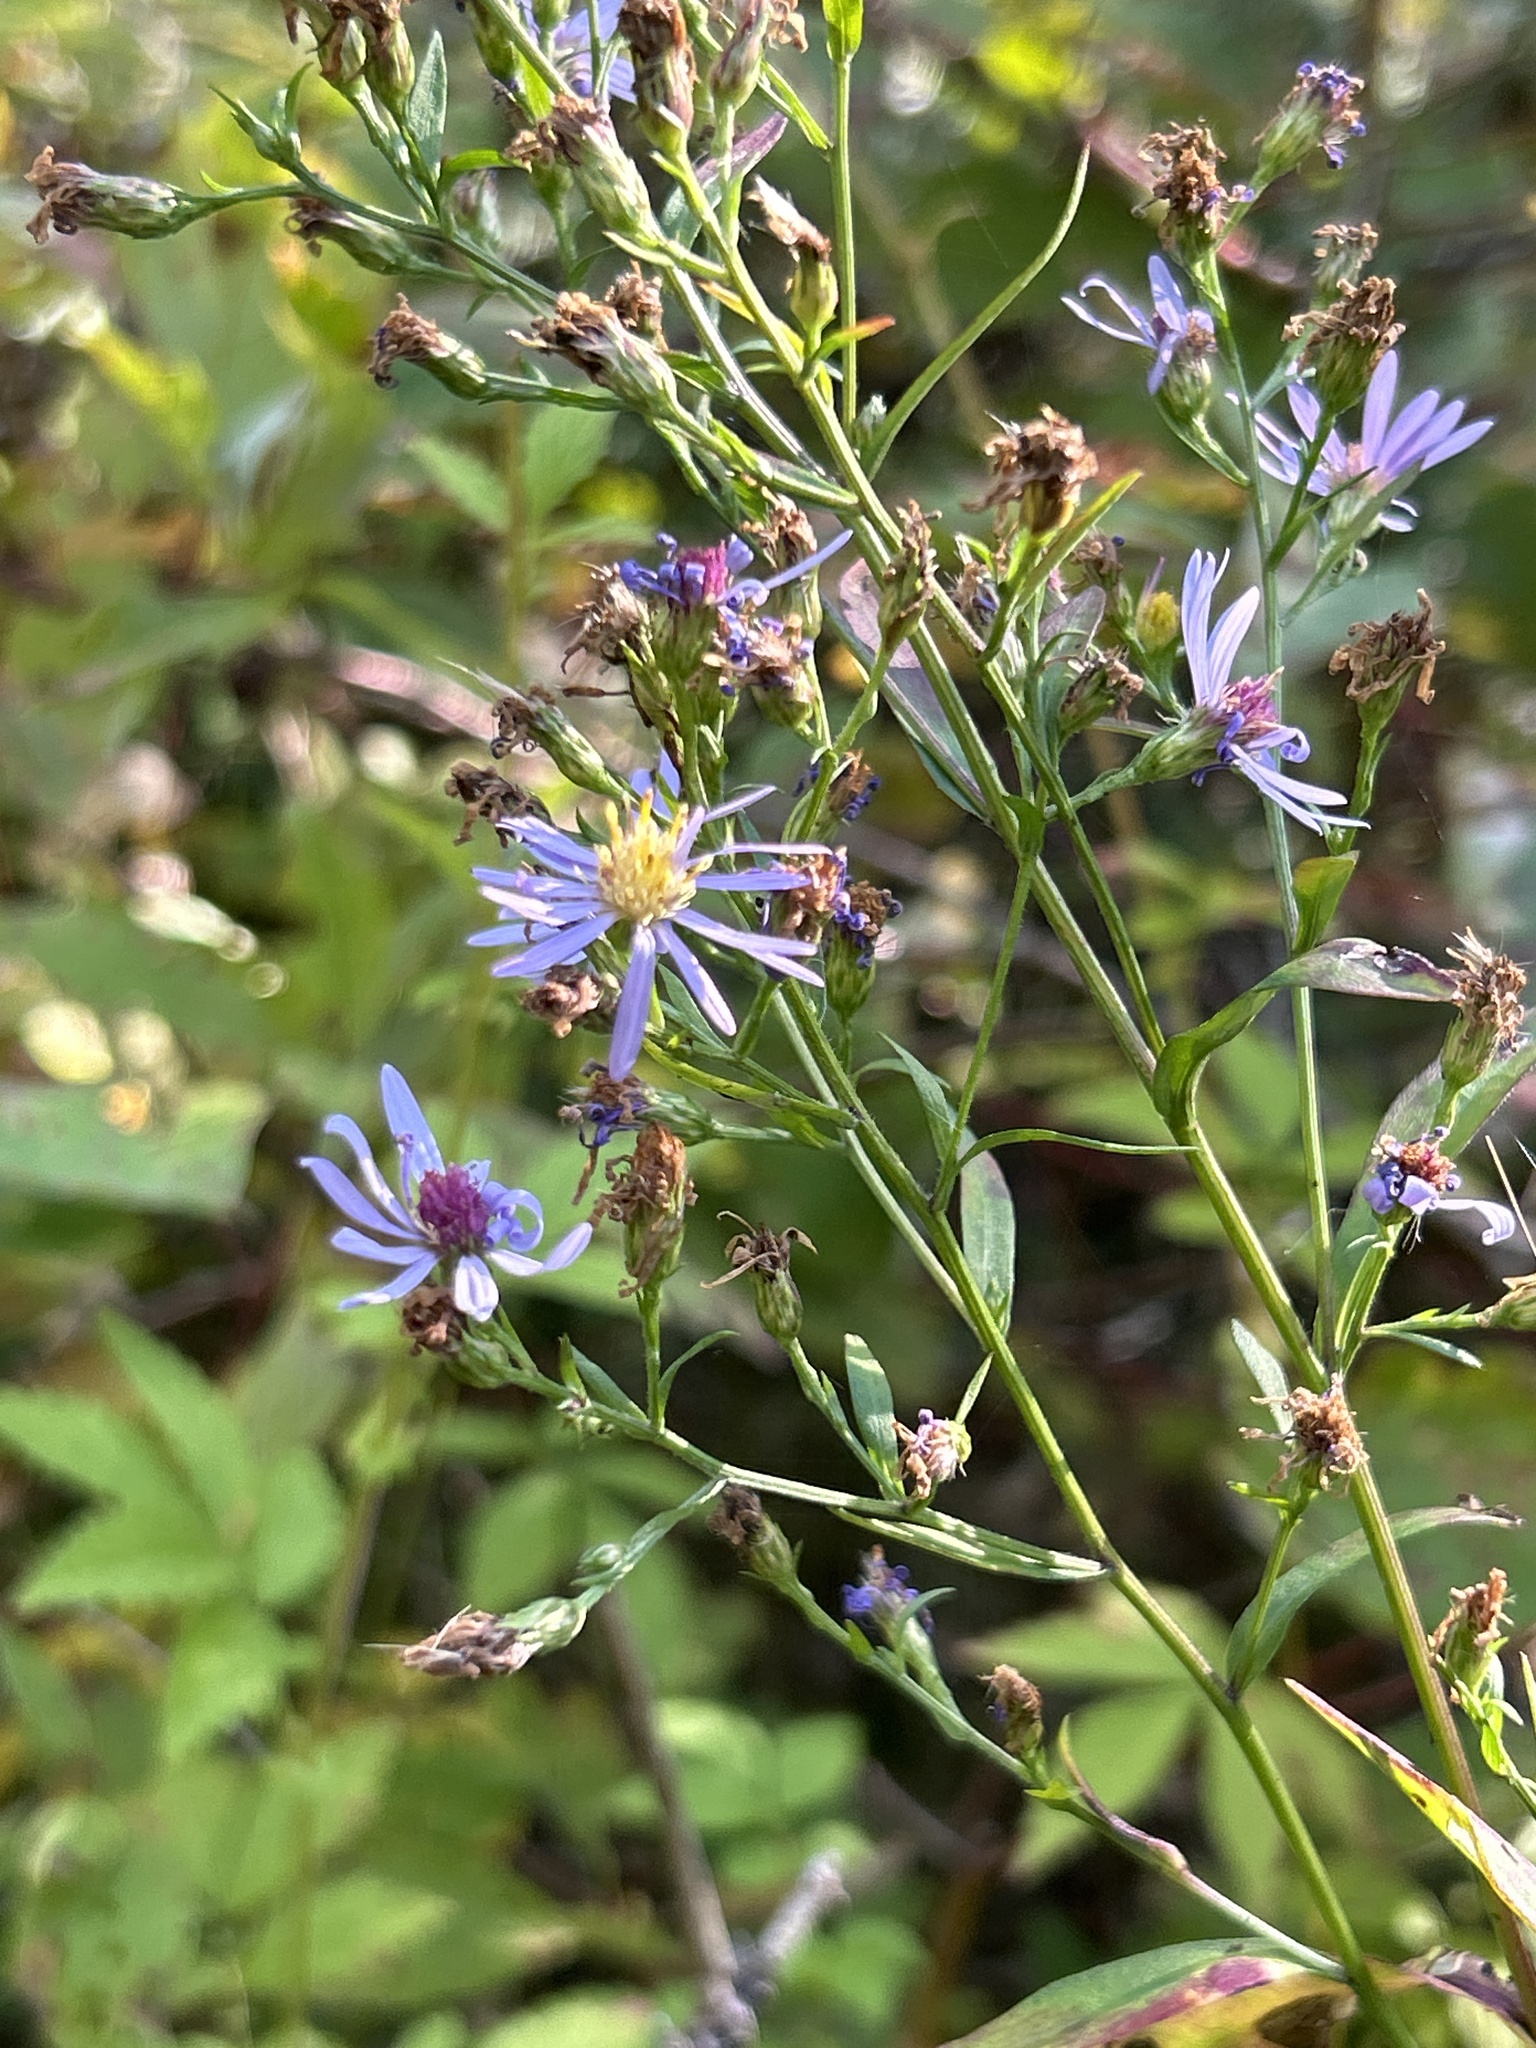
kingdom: Plantae
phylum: Tracheophyta
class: Magnoliopsida
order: Asterales
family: Asteraceae
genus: Symphyotrichum
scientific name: Symphyotrichum ciliolatum
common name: Fringed blue aster
